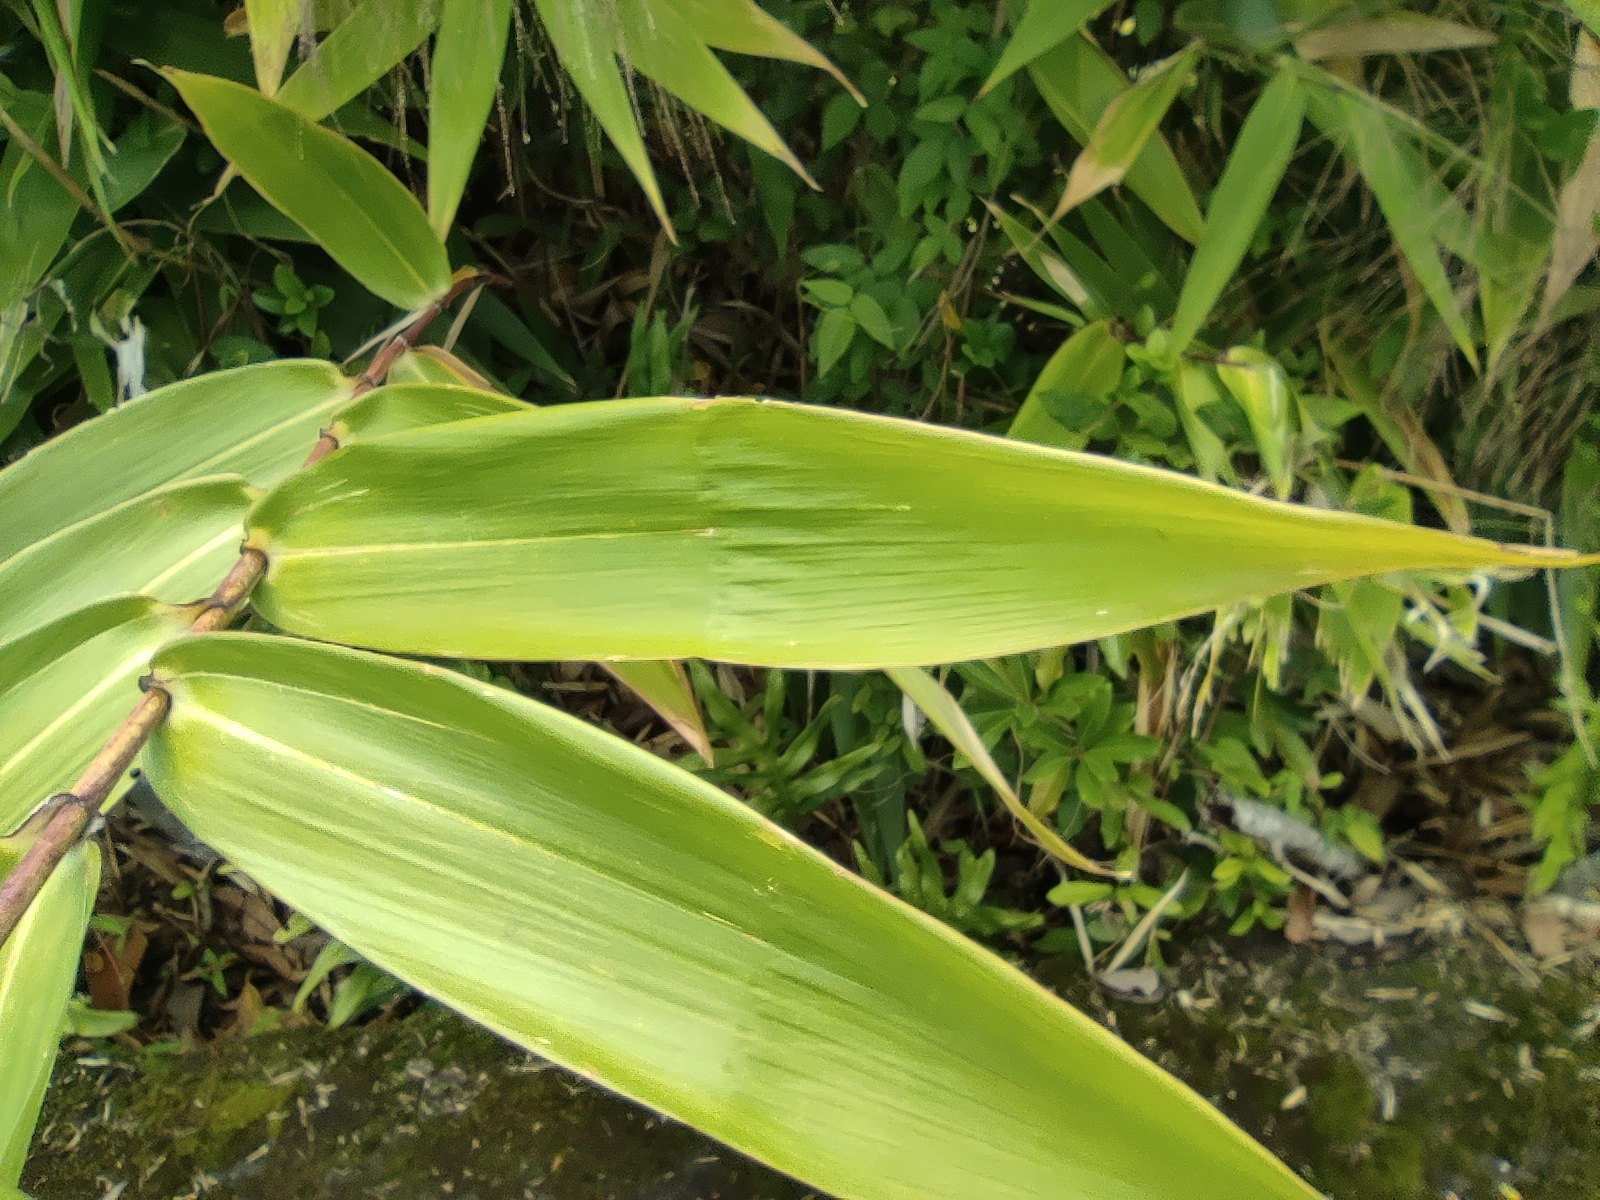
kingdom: Plantae
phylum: Tracheophyta
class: Liliopsida
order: Poales
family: Poaceae
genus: Thysanolaena
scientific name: Thysanolaena latifolia
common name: Tiger grass
